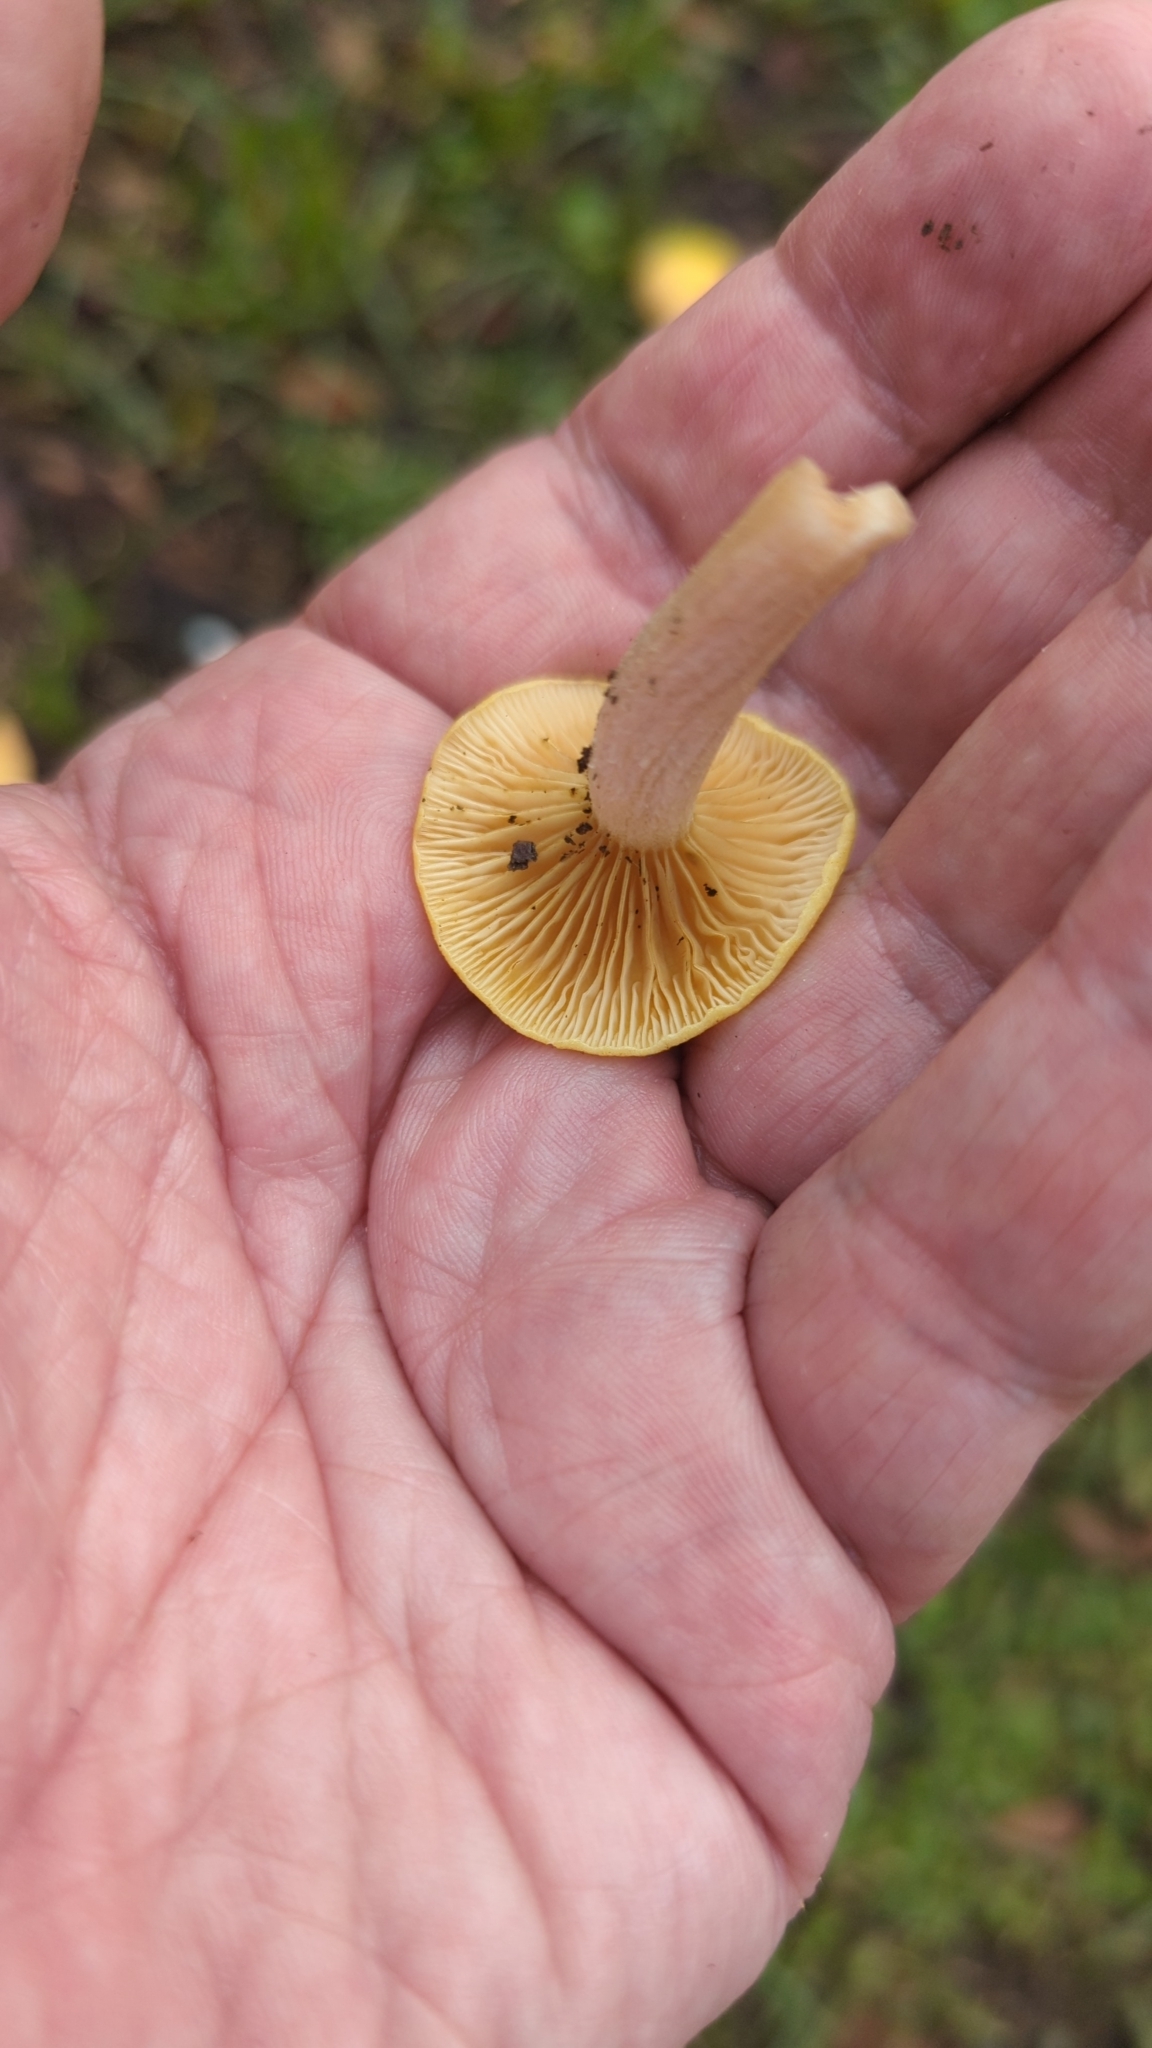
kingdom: Fungi
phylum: Basidiomycota
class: Agaricomycetes
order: Agaricales
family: Physalacriaceae
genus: Desarmillaria
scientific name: Desarmillaria caespitosa
